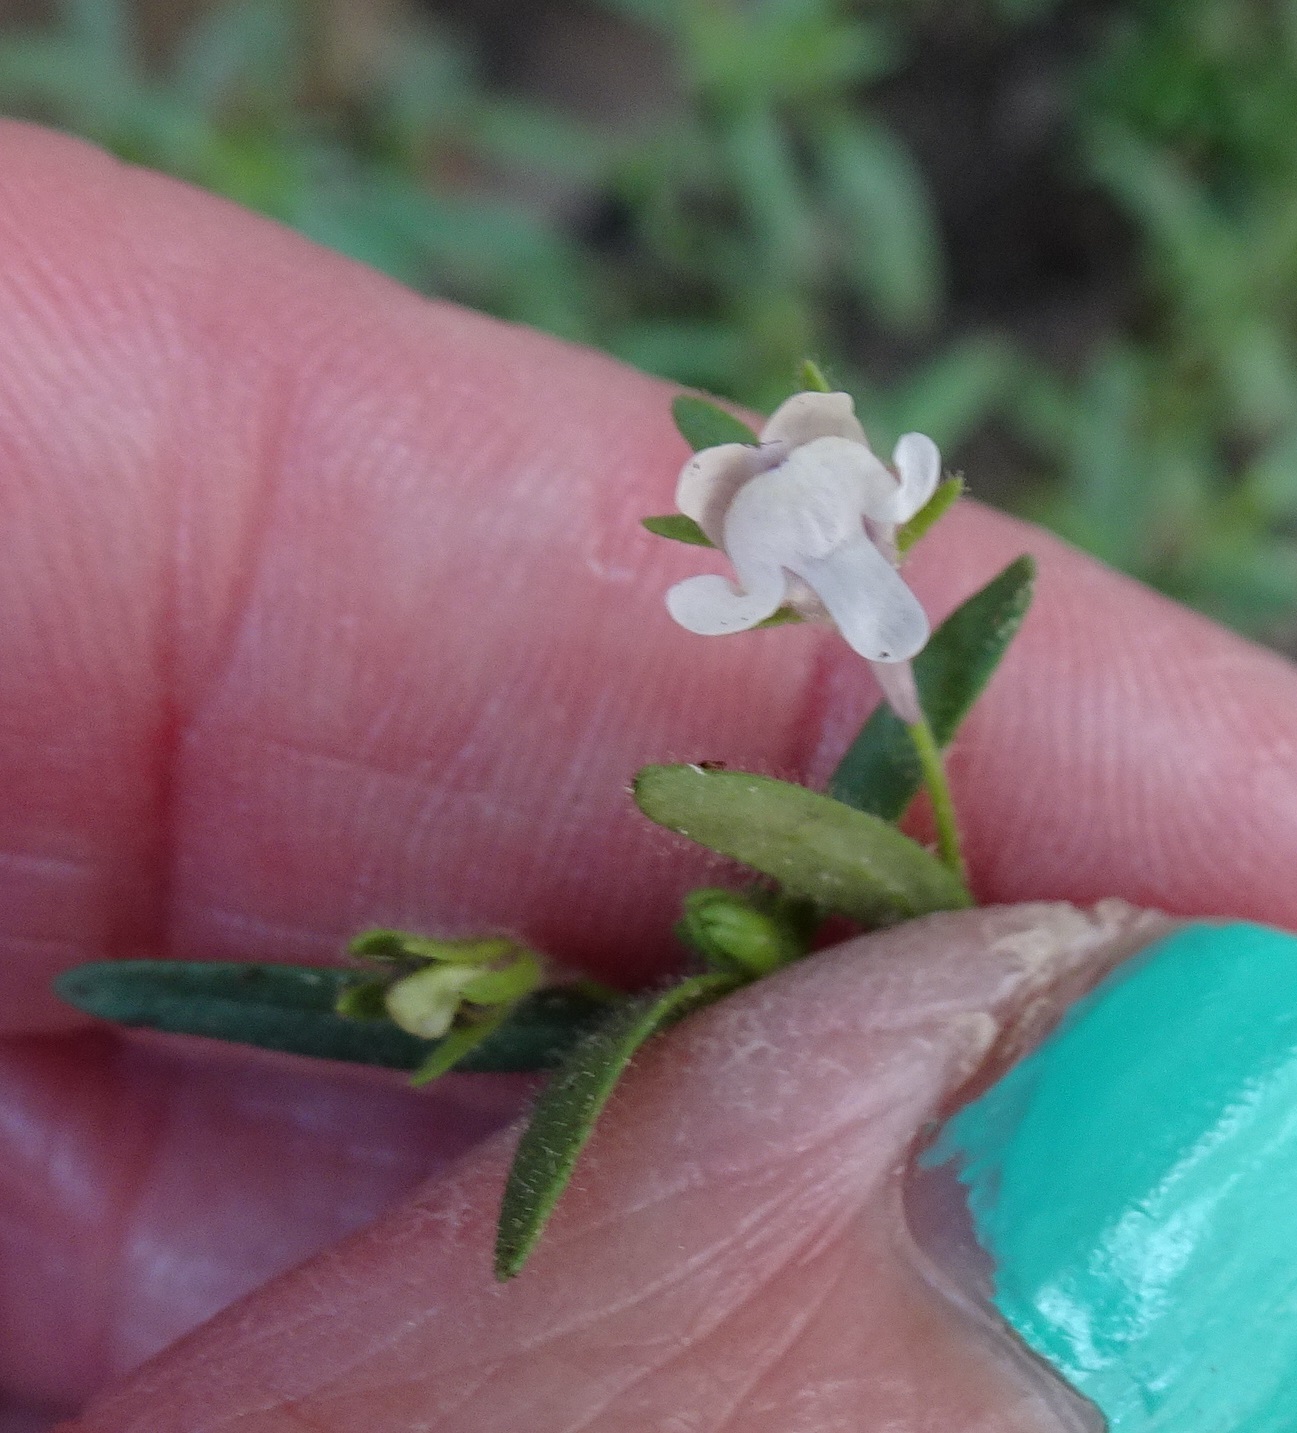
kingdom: Plantae
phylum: Tracheophyta
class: Magnoliopsida
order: Lamiales
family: Plantaginaceae
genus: Chaenorhinum
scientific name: Chaenorhinum minus
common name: Dwarf snapdragon
